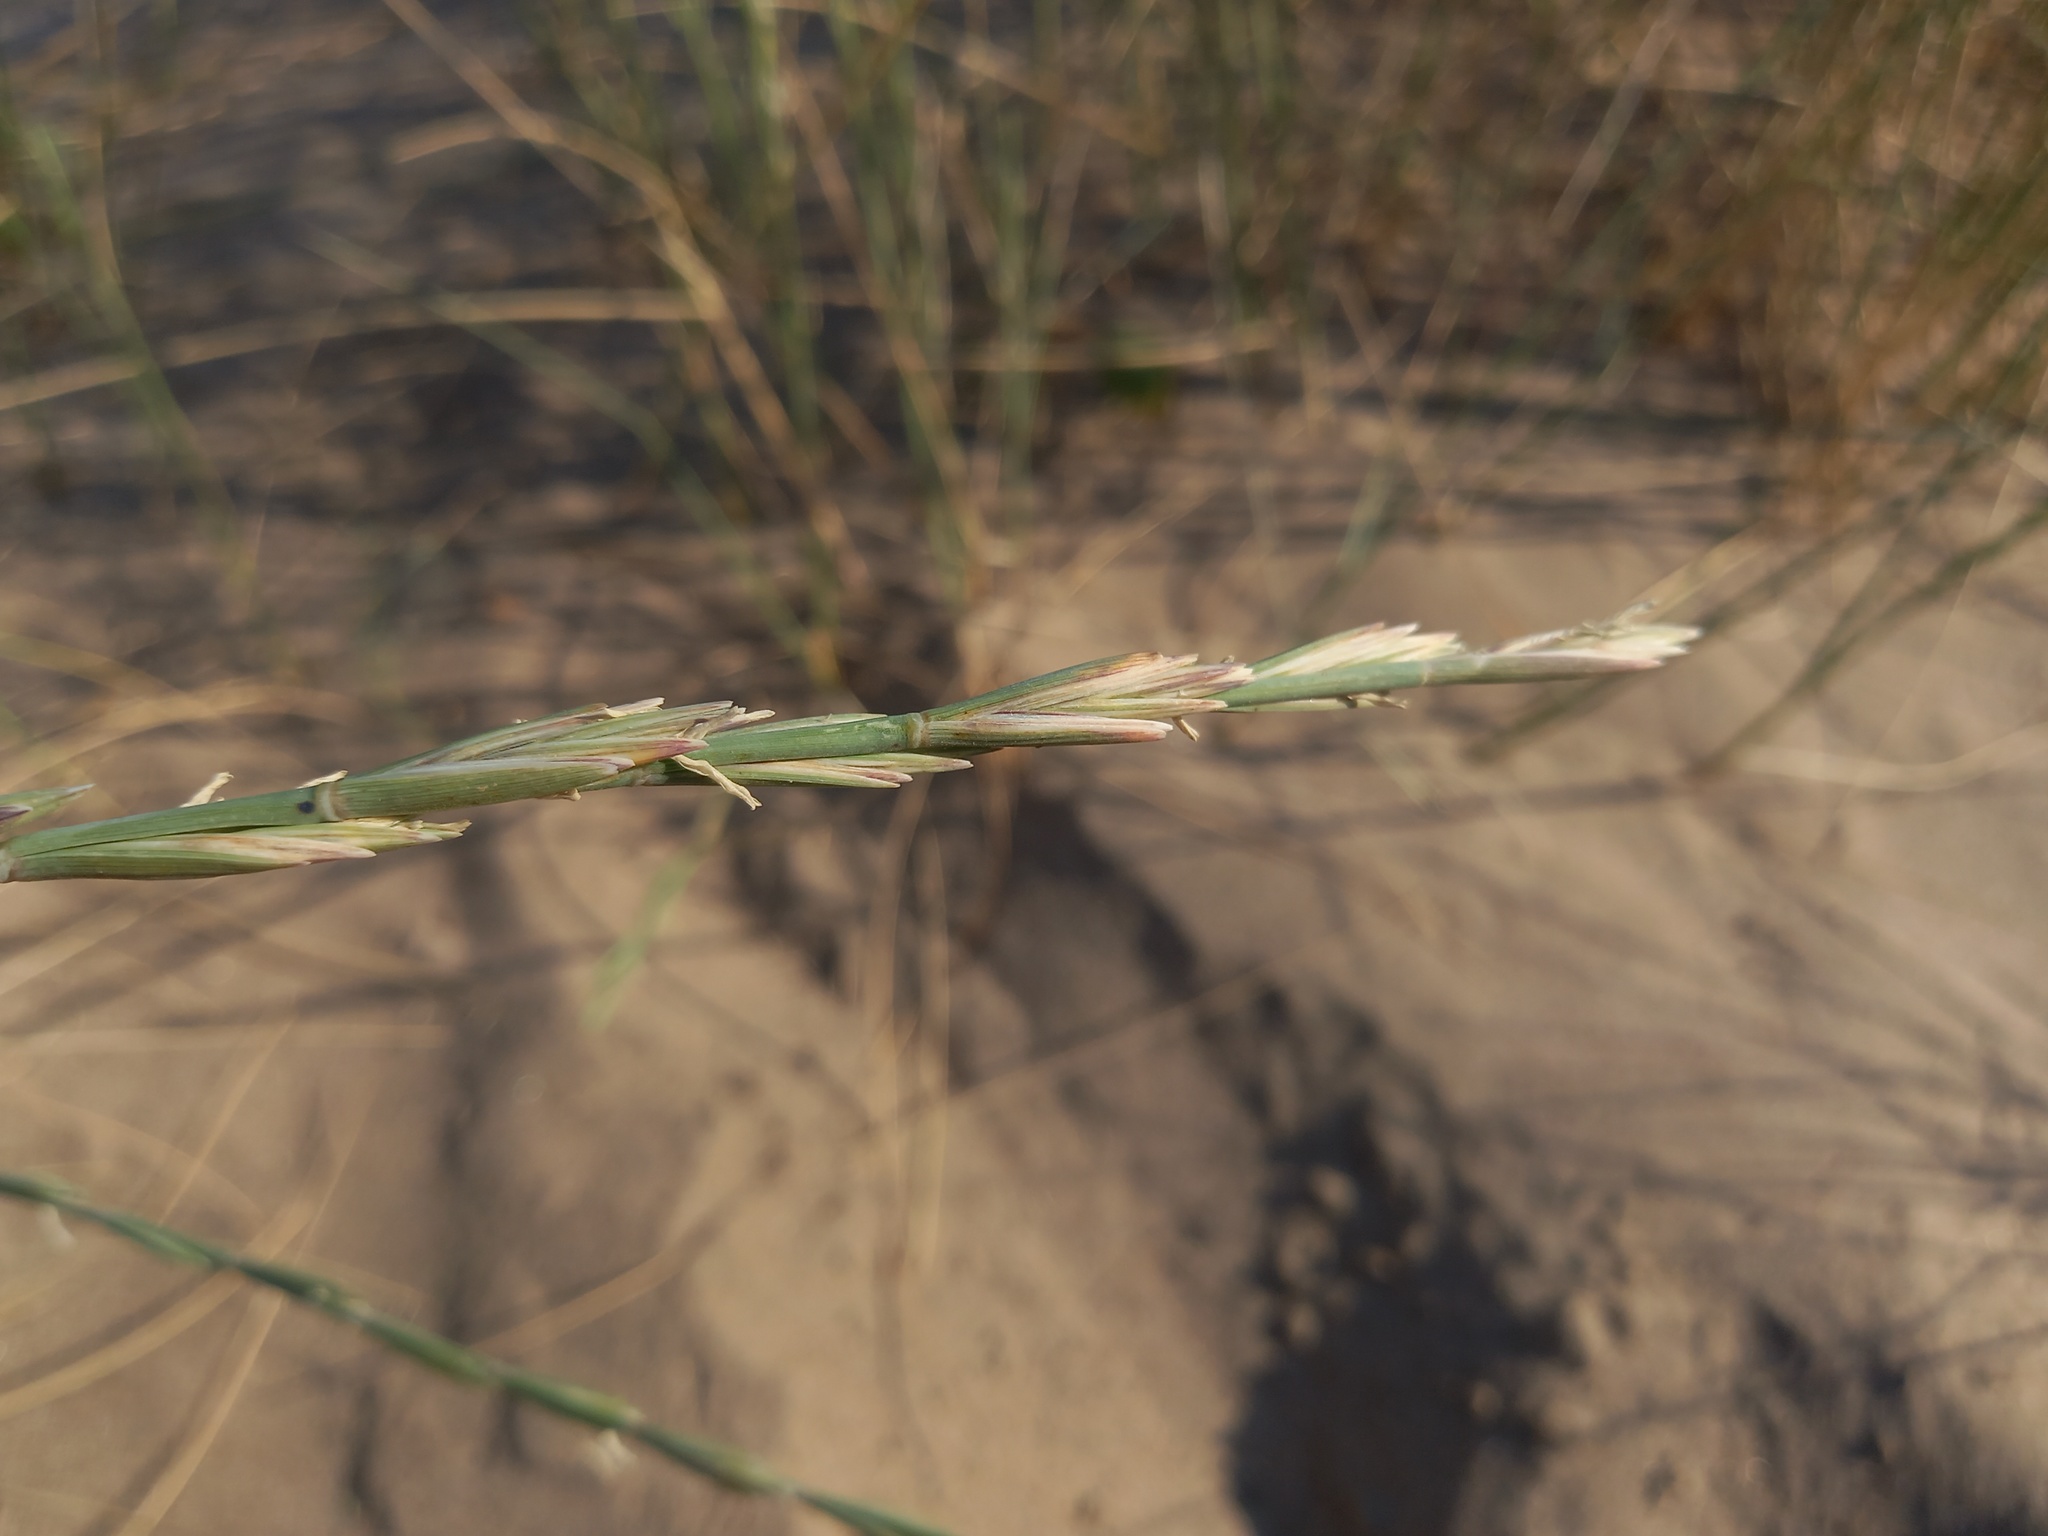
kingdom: Plantae
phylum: Tracheophyta
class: Liliopsida
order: Poales
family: Poaceae
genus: Thinopyrum
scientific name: Thinopyrum junceum
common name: Russian wheatgrass
